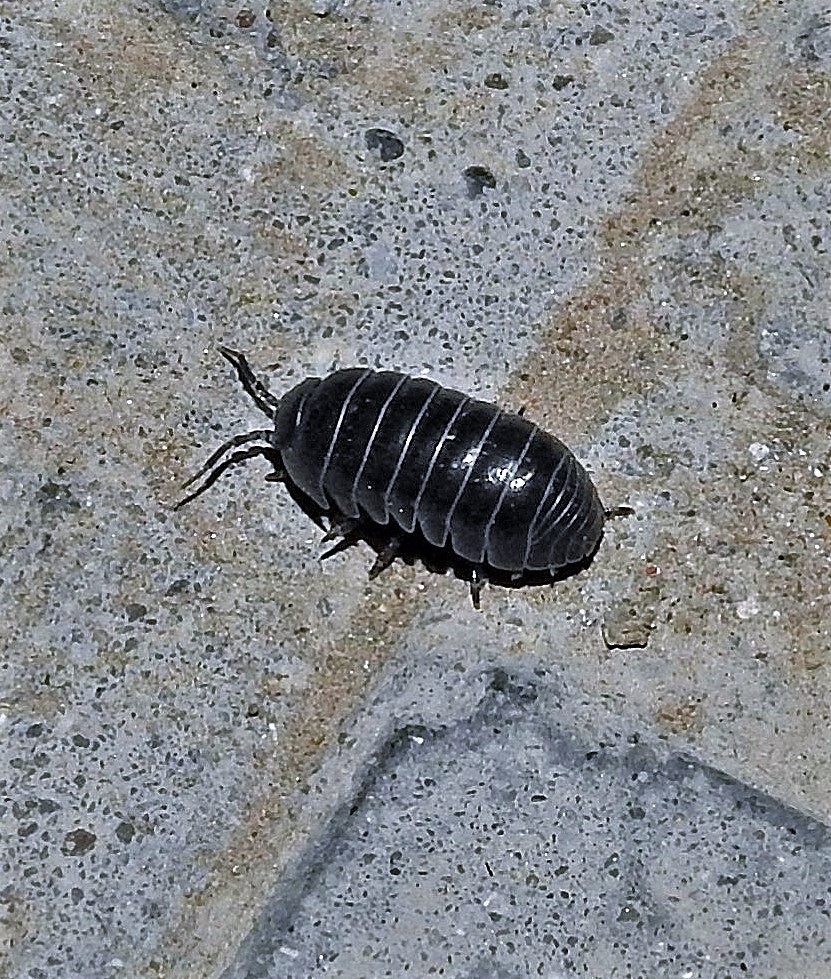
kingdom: Animalia
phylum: Arthropoda
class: Malacostraca
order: Isopoda
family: Armadillidiidae
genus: Armadillidium
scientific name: Armadillidium vulgare
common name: Common pill woodlouse
